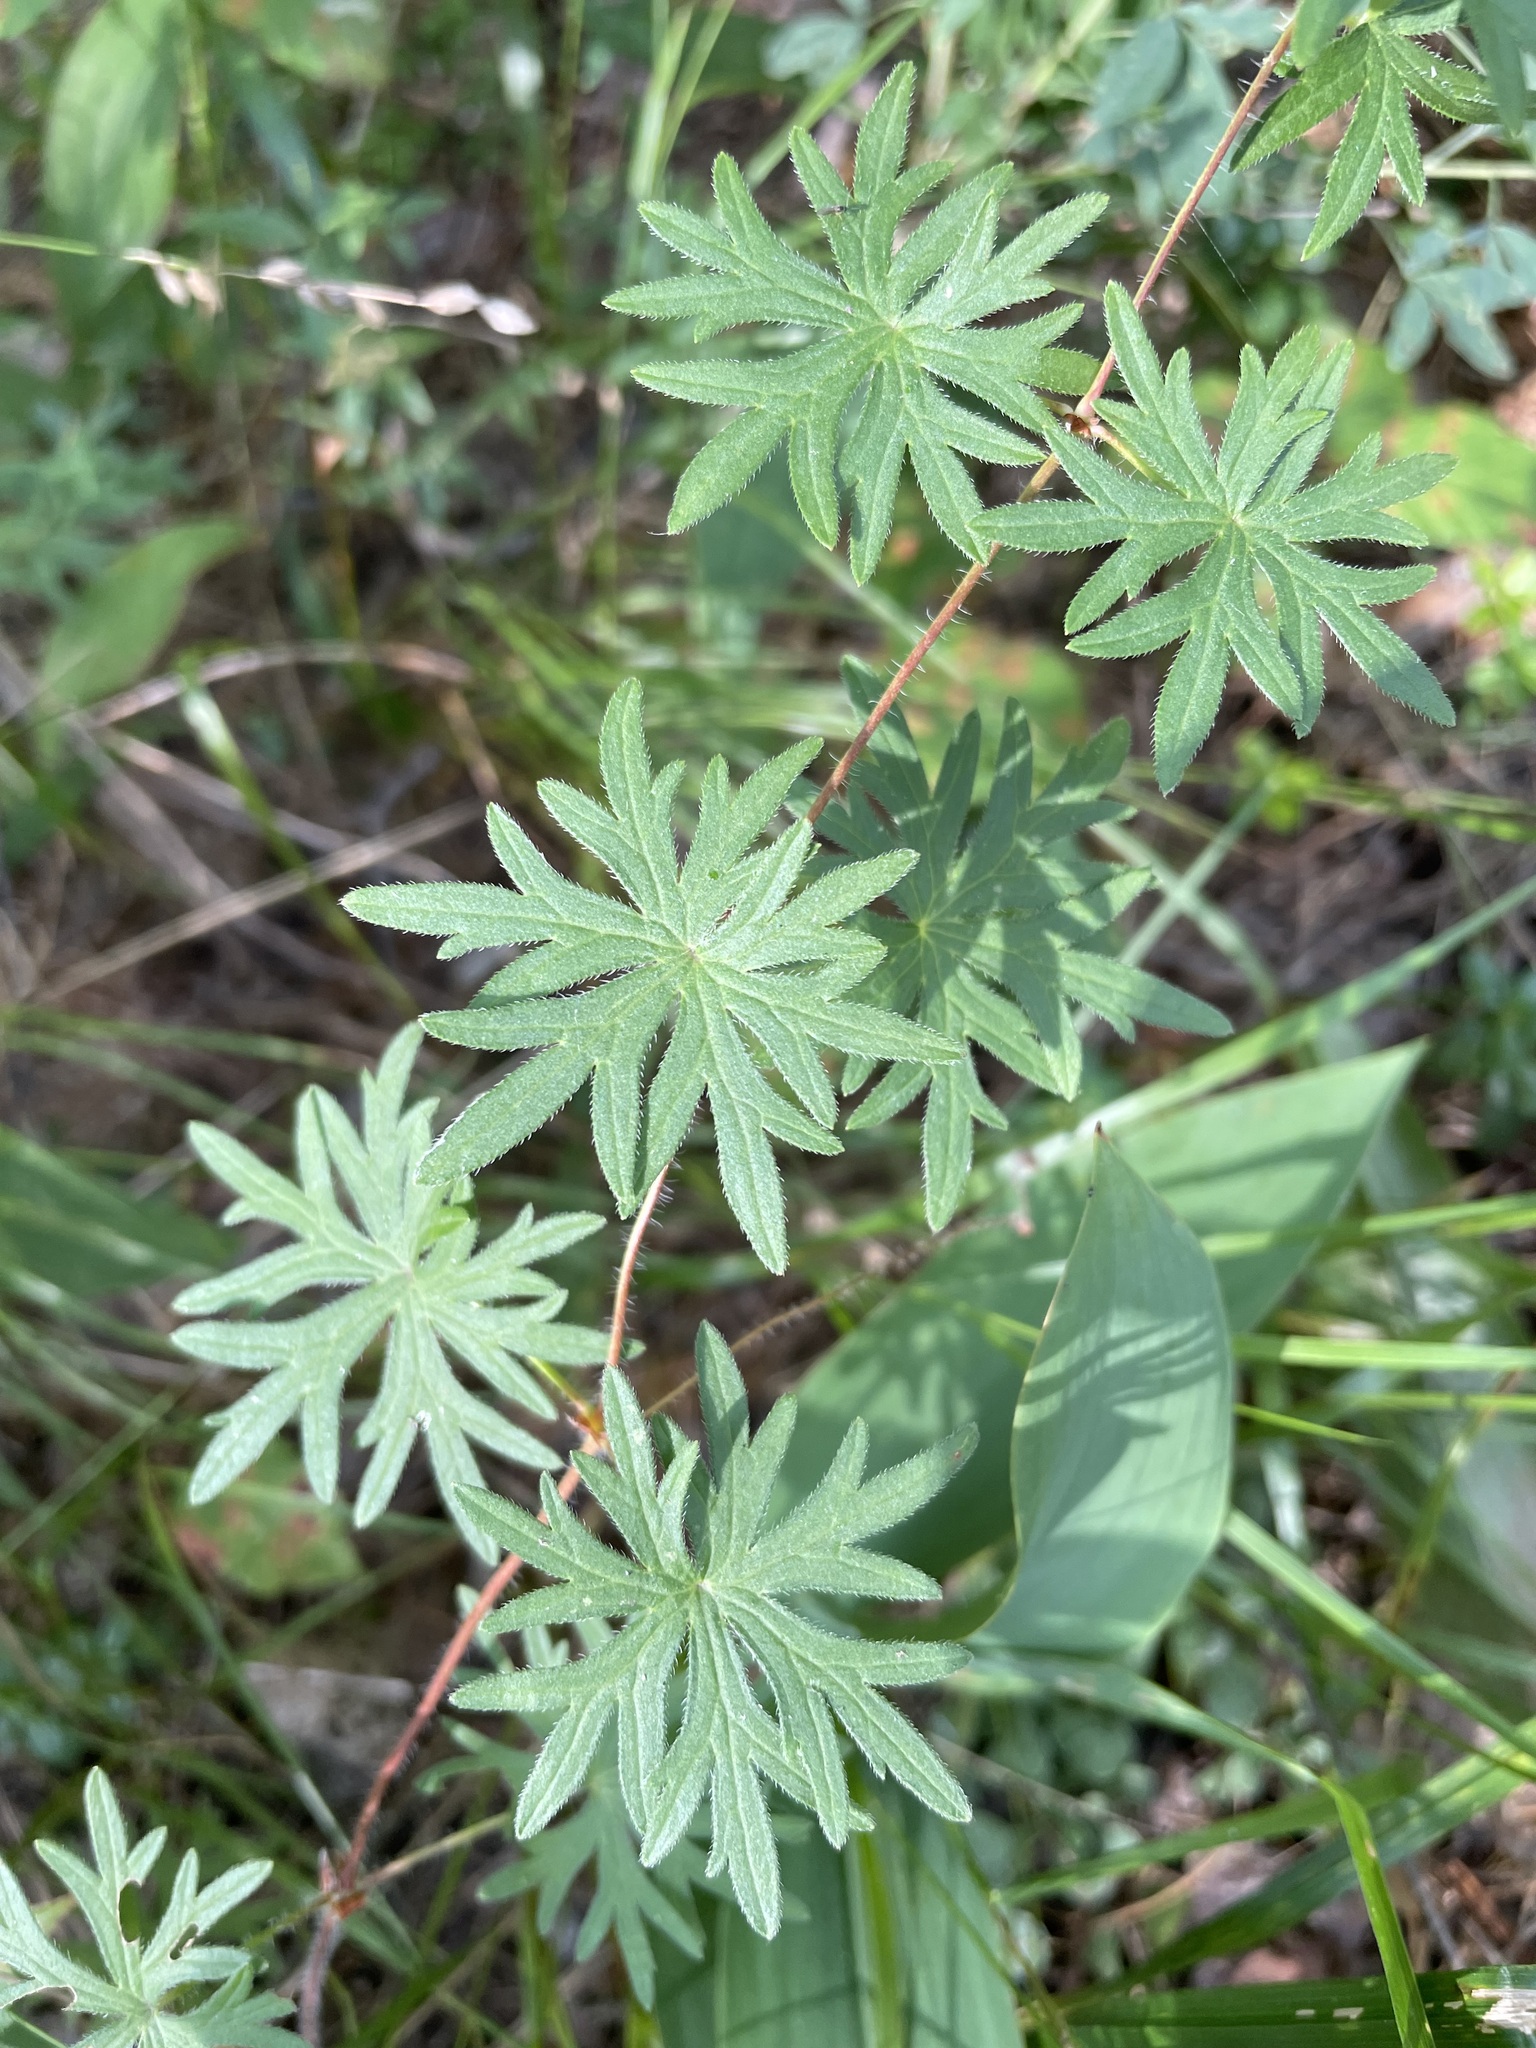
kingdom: Plantae
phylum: Tracheophyta
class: Magnoliopsida
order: Geraniales
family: Geraniaceae
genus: Geranium
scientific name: Geranium sanguineum
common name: Bloody crane's-bill
